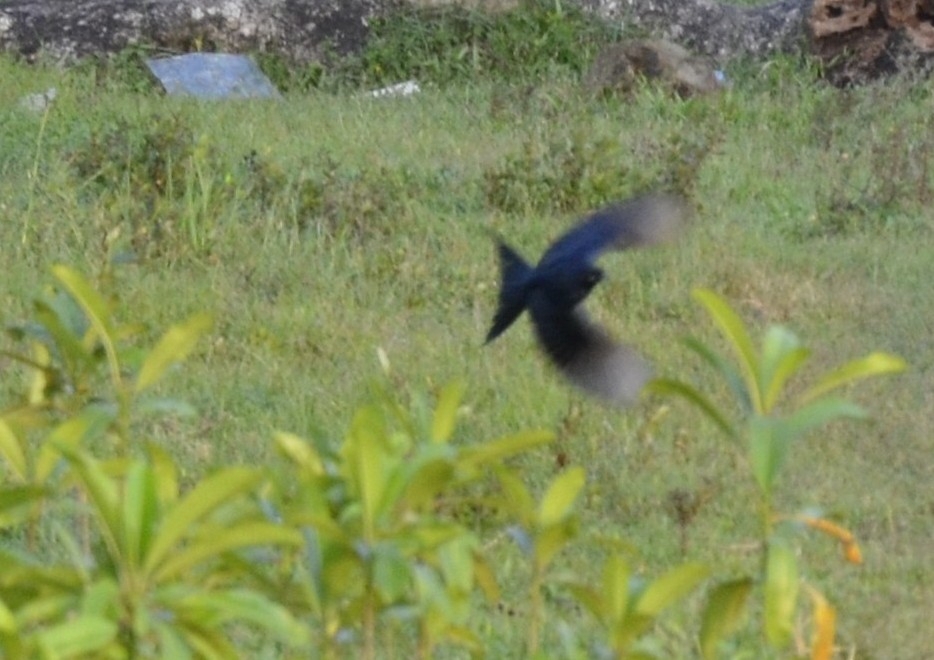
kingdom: Animalia
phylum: Chordata
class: Aves
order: Passeriformes
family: Dicruridae
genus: Dicrurus
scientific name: Dicrurus macrocercus
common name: Black drongo
